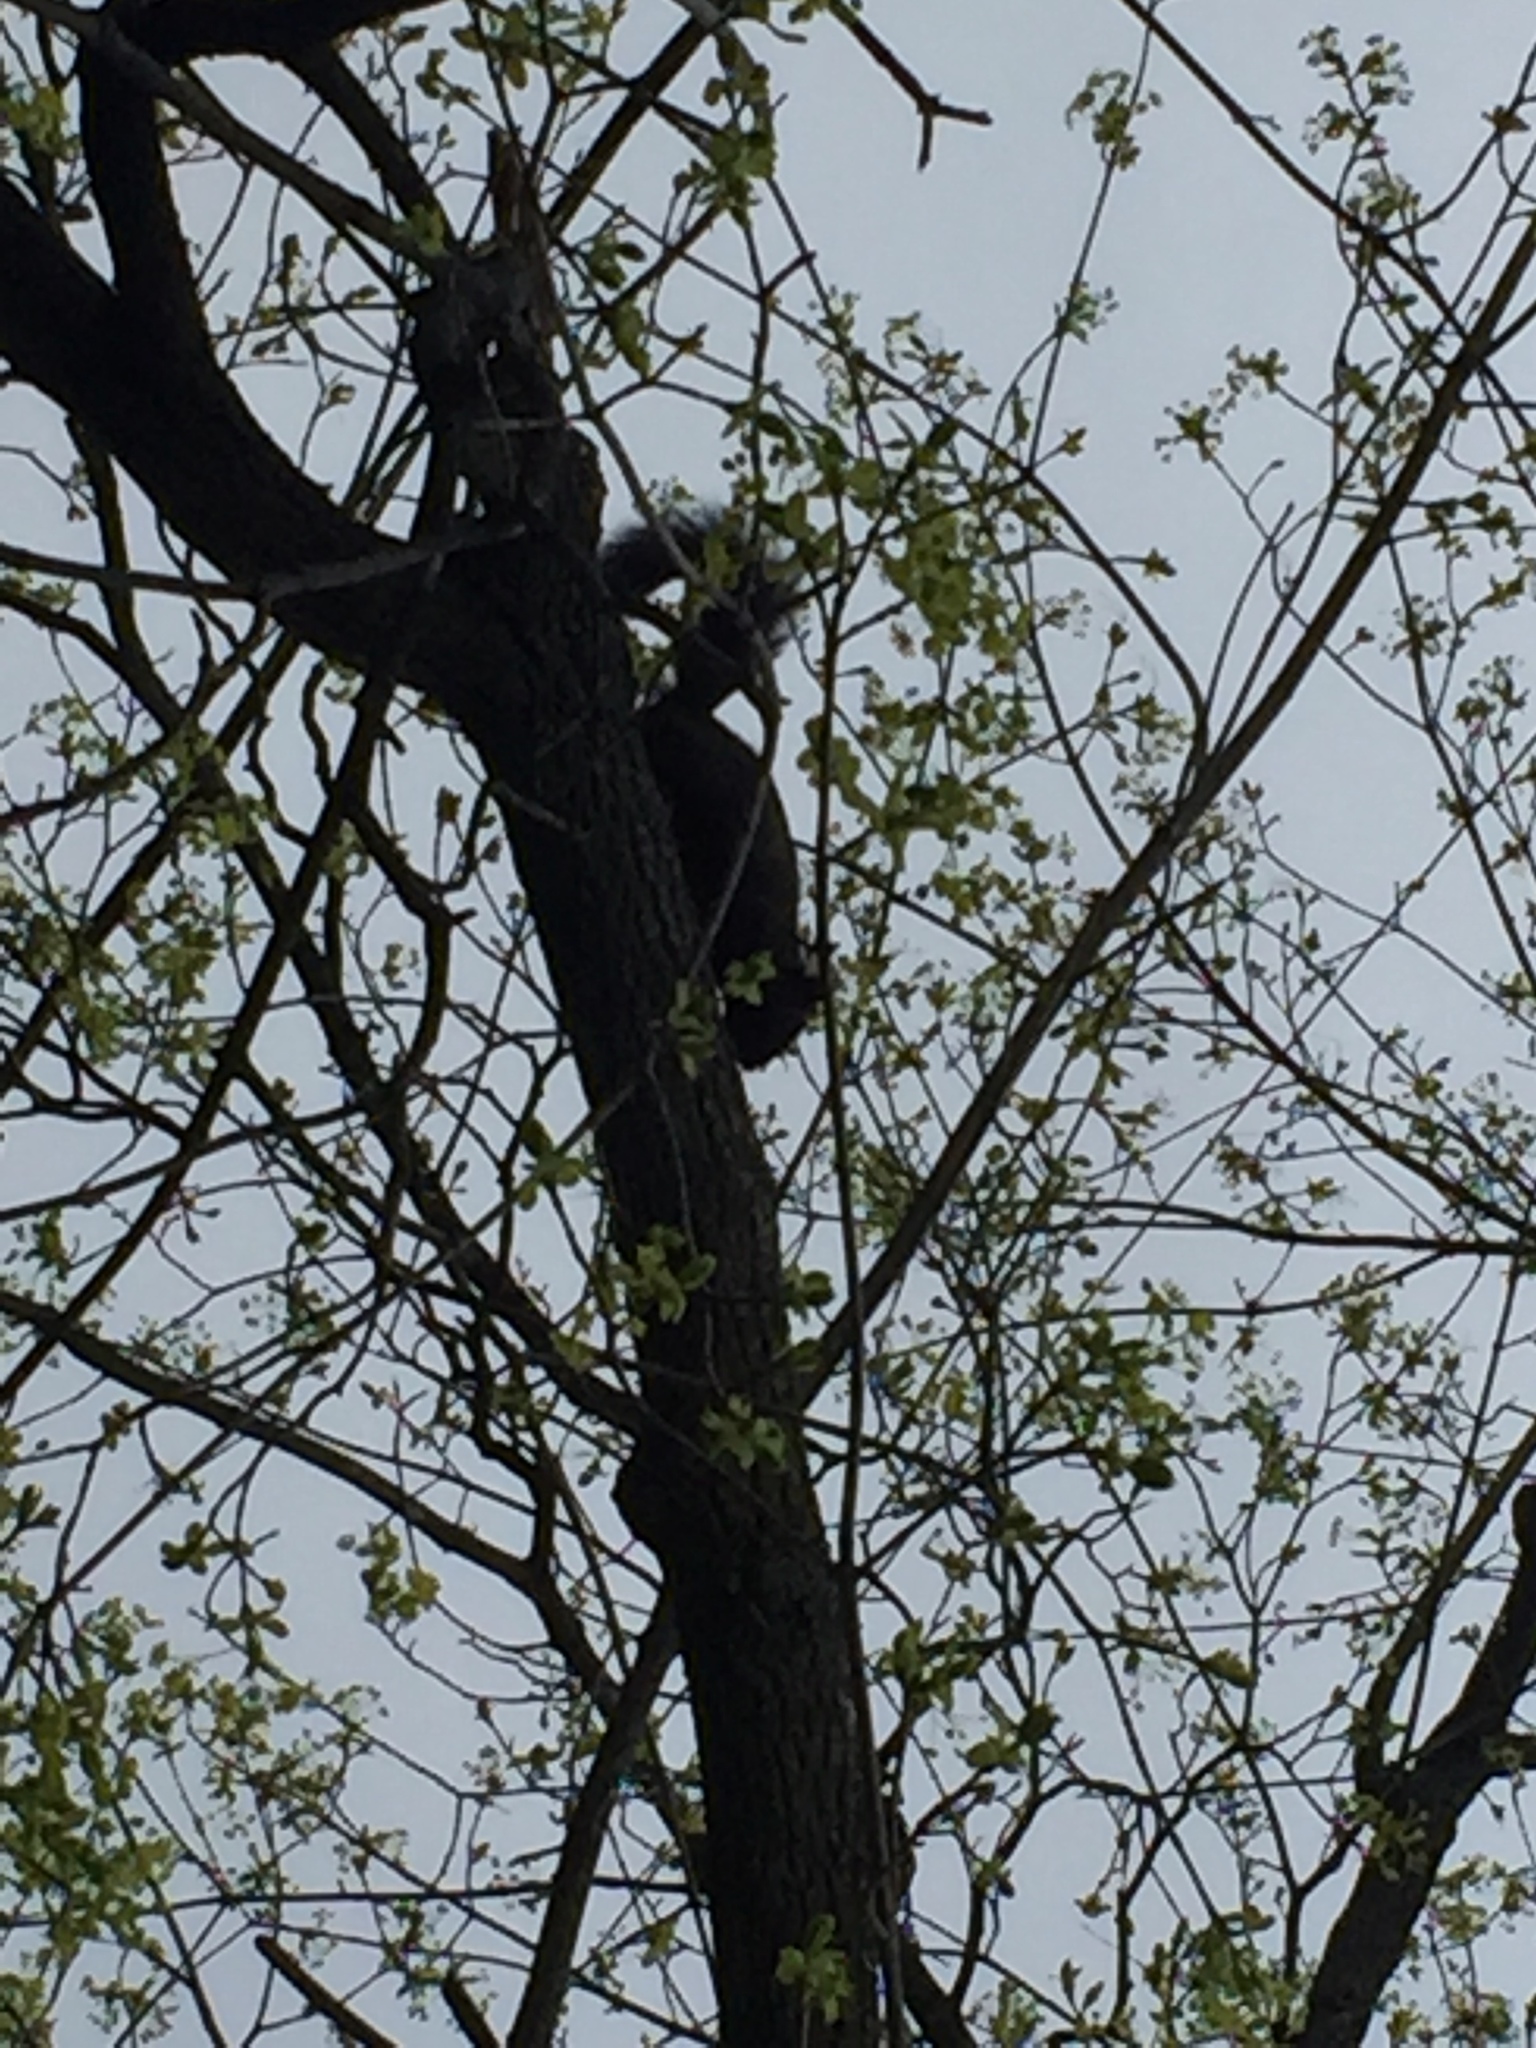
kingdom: Animalia
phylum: Chordata
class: Mammalia
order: Rodentia
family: Sciuridae
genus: Sciurus
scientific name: Sciurus carolinensis
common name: Eastern gray squirrel
